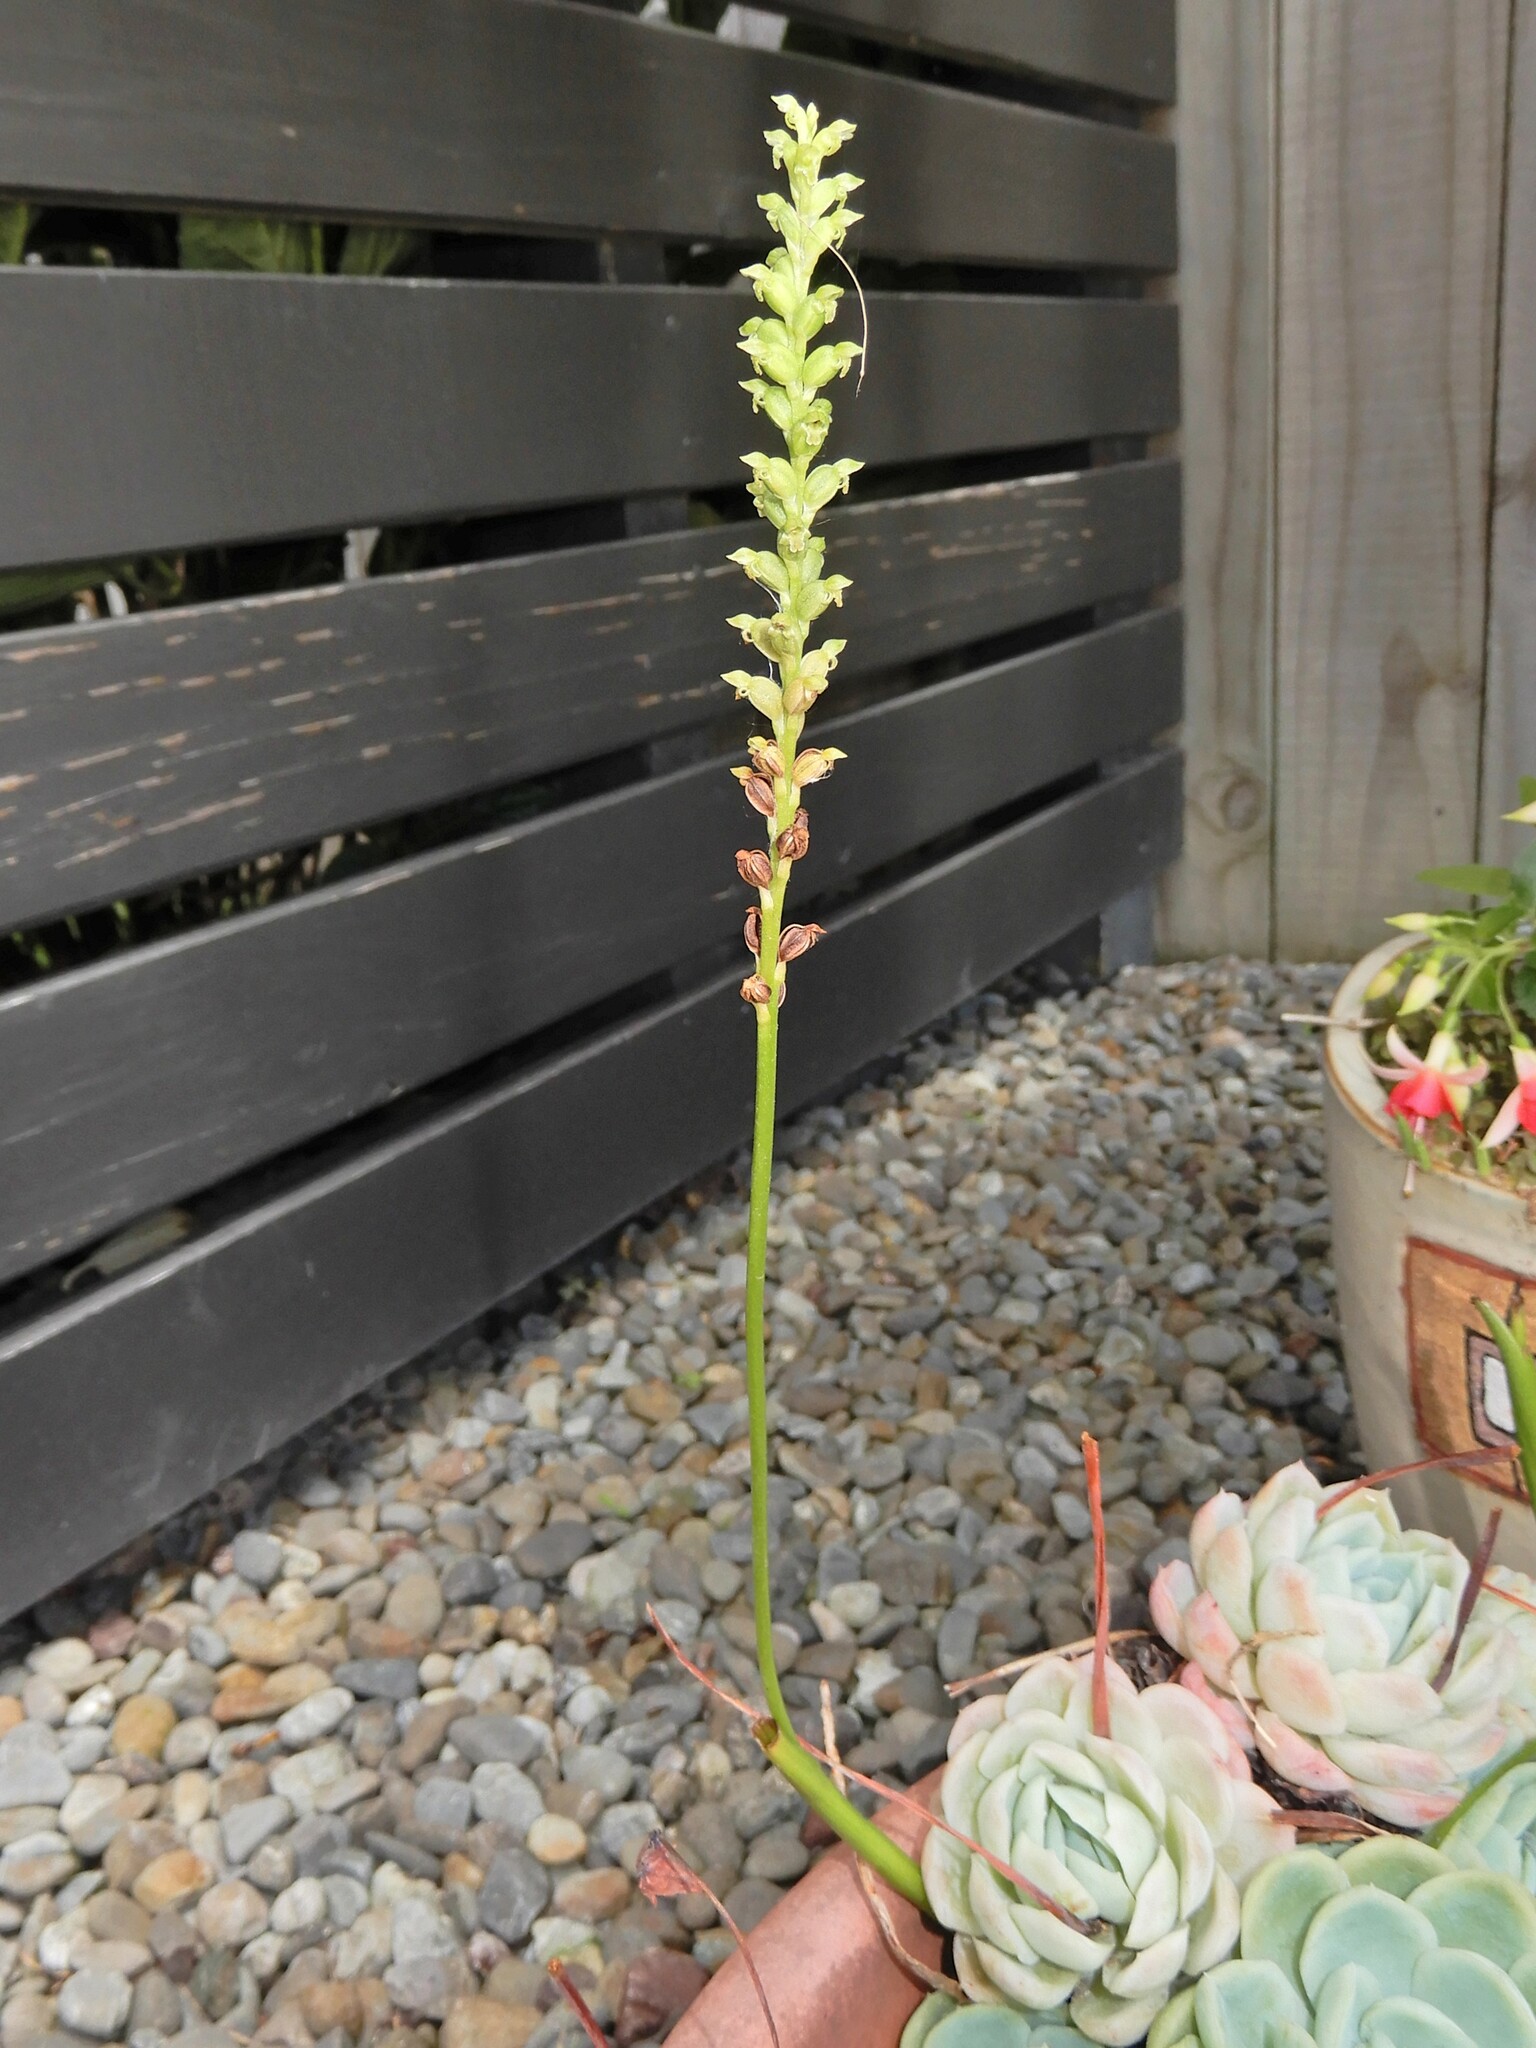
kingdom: Plantae
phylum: Tracheophyta
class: Liliopsida
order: Asparagales
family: Orchidaceae
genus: Microtis
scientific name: Microtis unifolia
